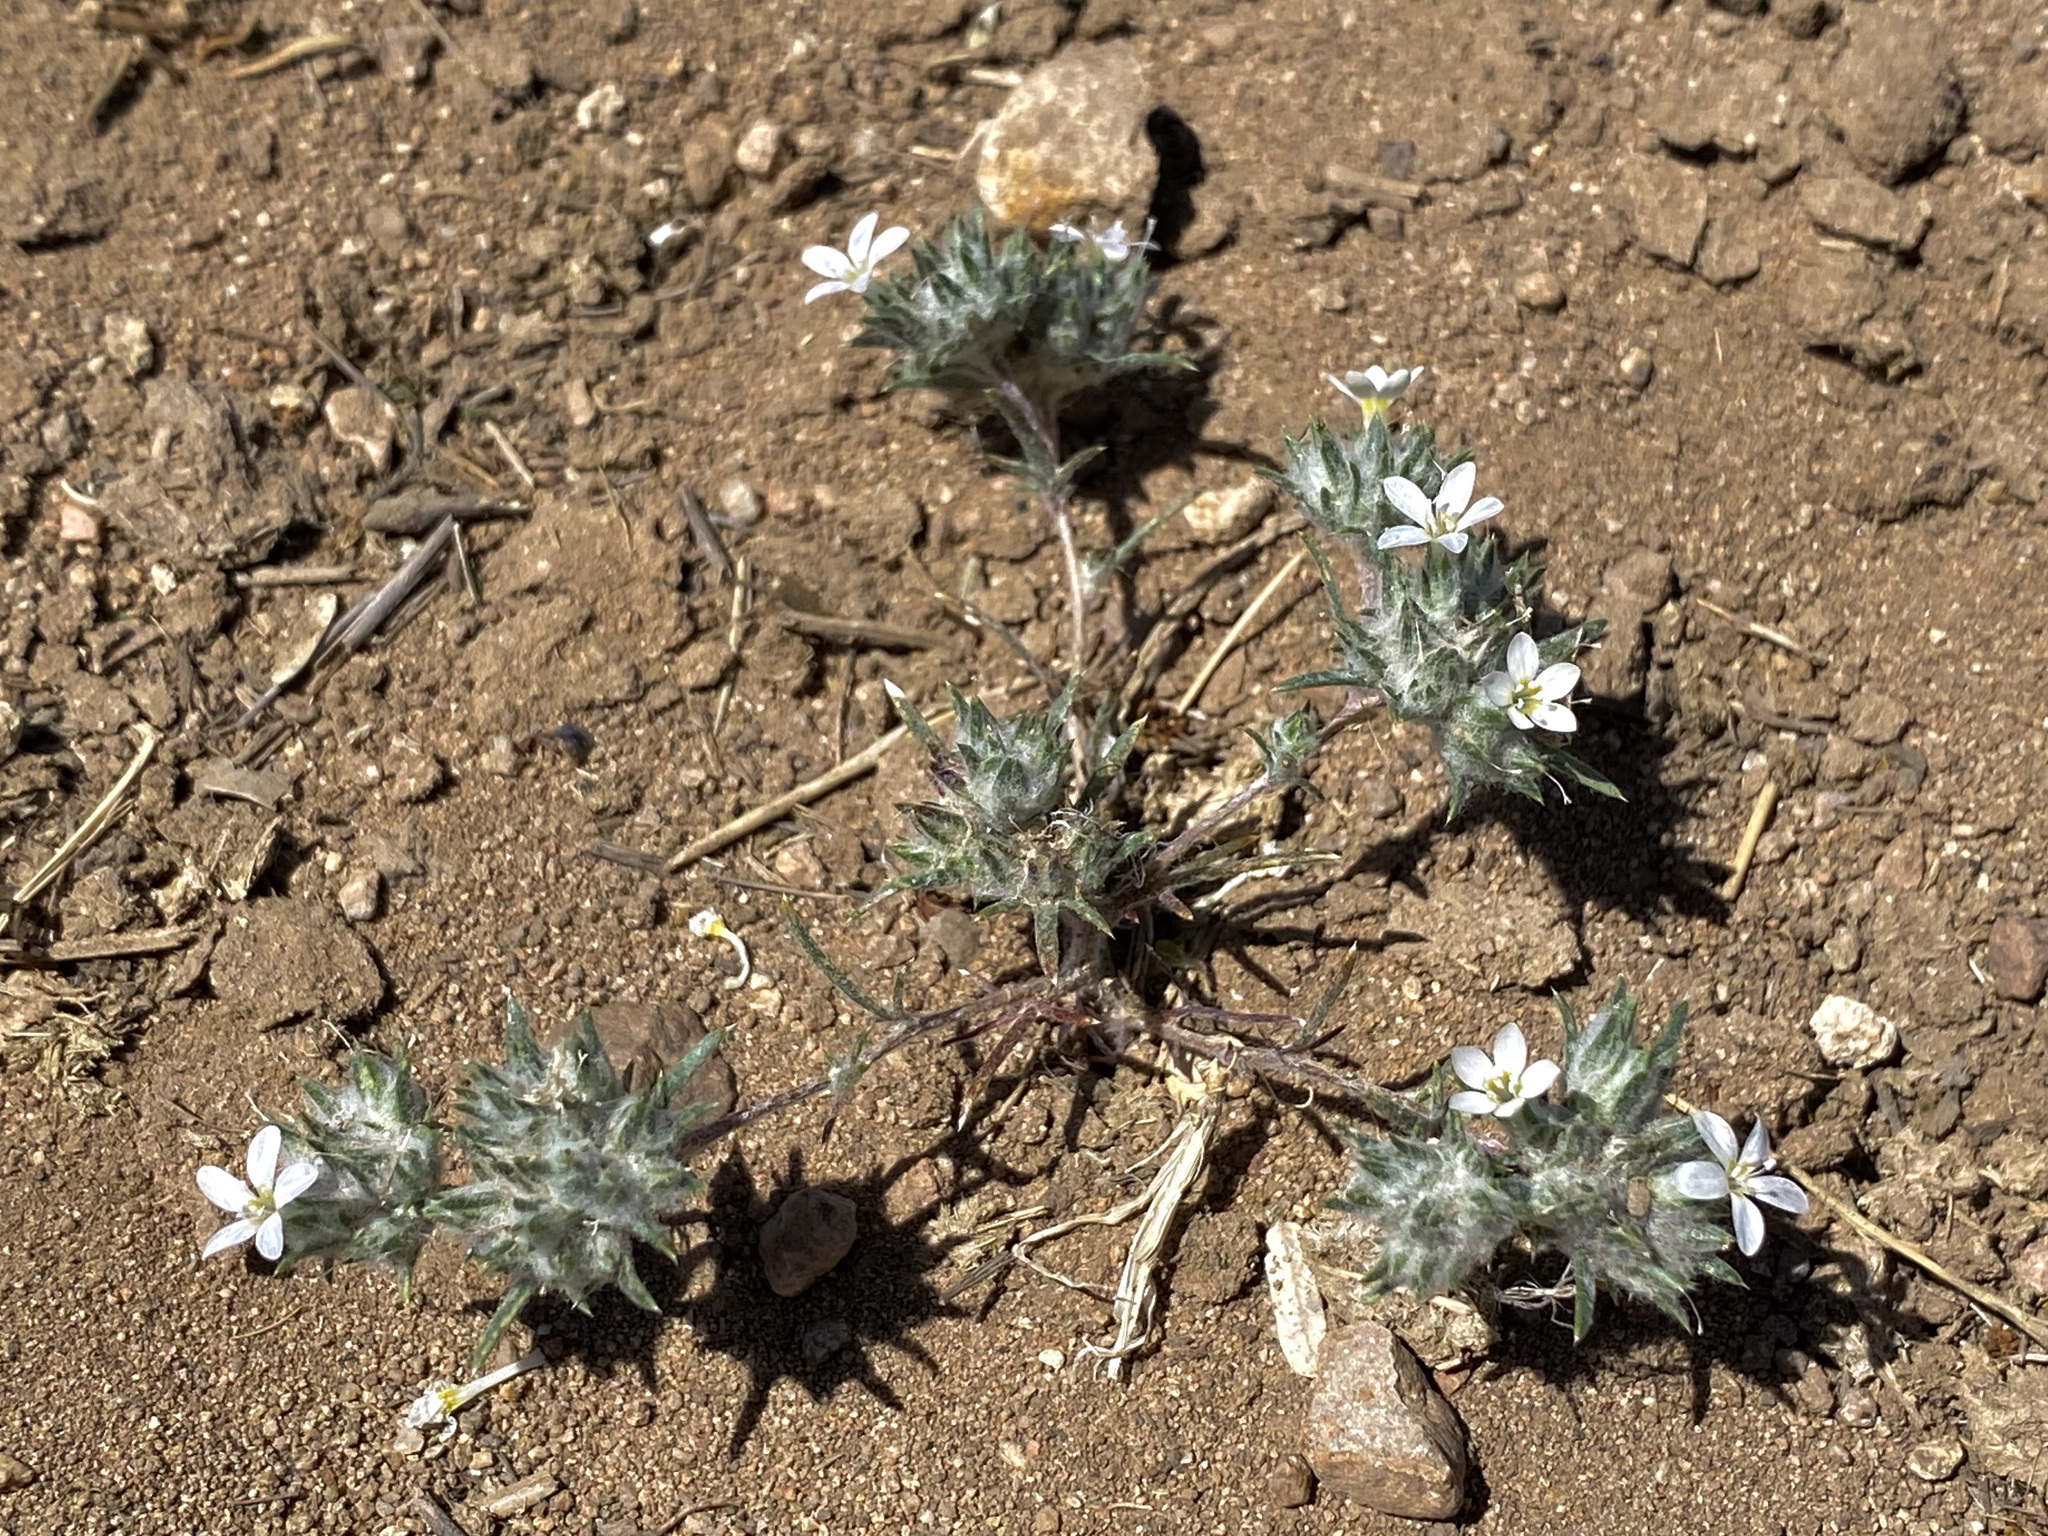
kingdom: Plantae
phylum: Tracheophyta
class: Magnoliopsida
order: Ericales
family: Polemoniaceae
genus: Eriastrum
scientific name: Eriastrum diffusum
